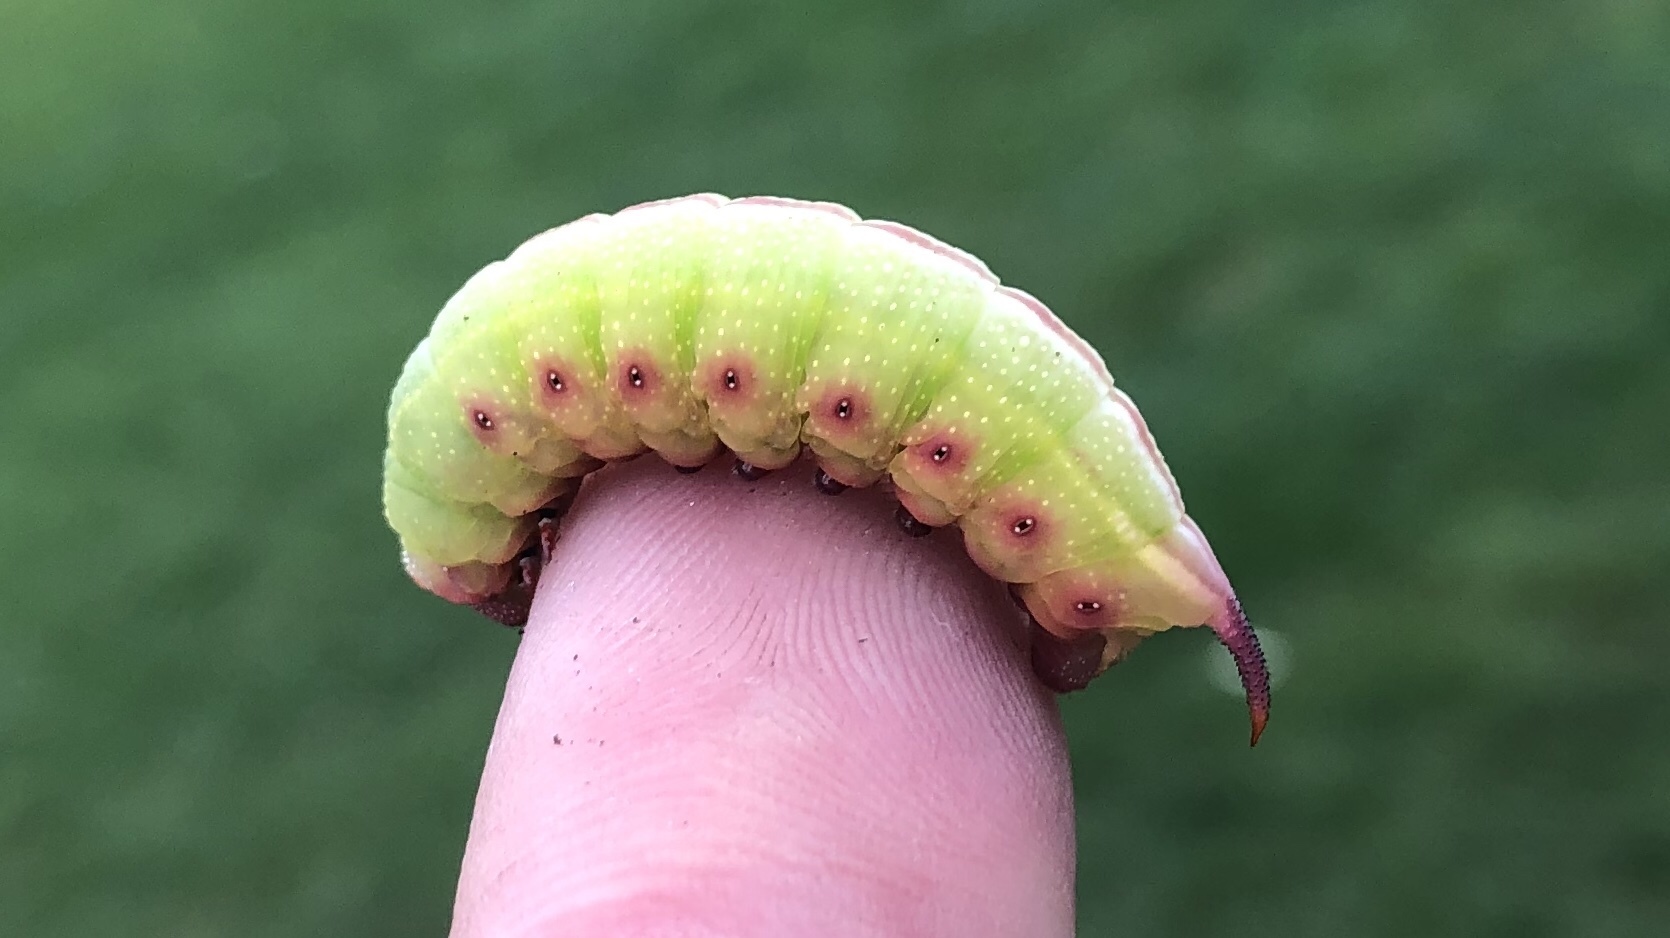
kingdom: Animalia
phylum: Arthropoda
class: Insecta
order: Lepidoptera
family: Sphingidae
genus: Hemaris
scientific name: Hemaris thysbe
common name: Common clear-wing
